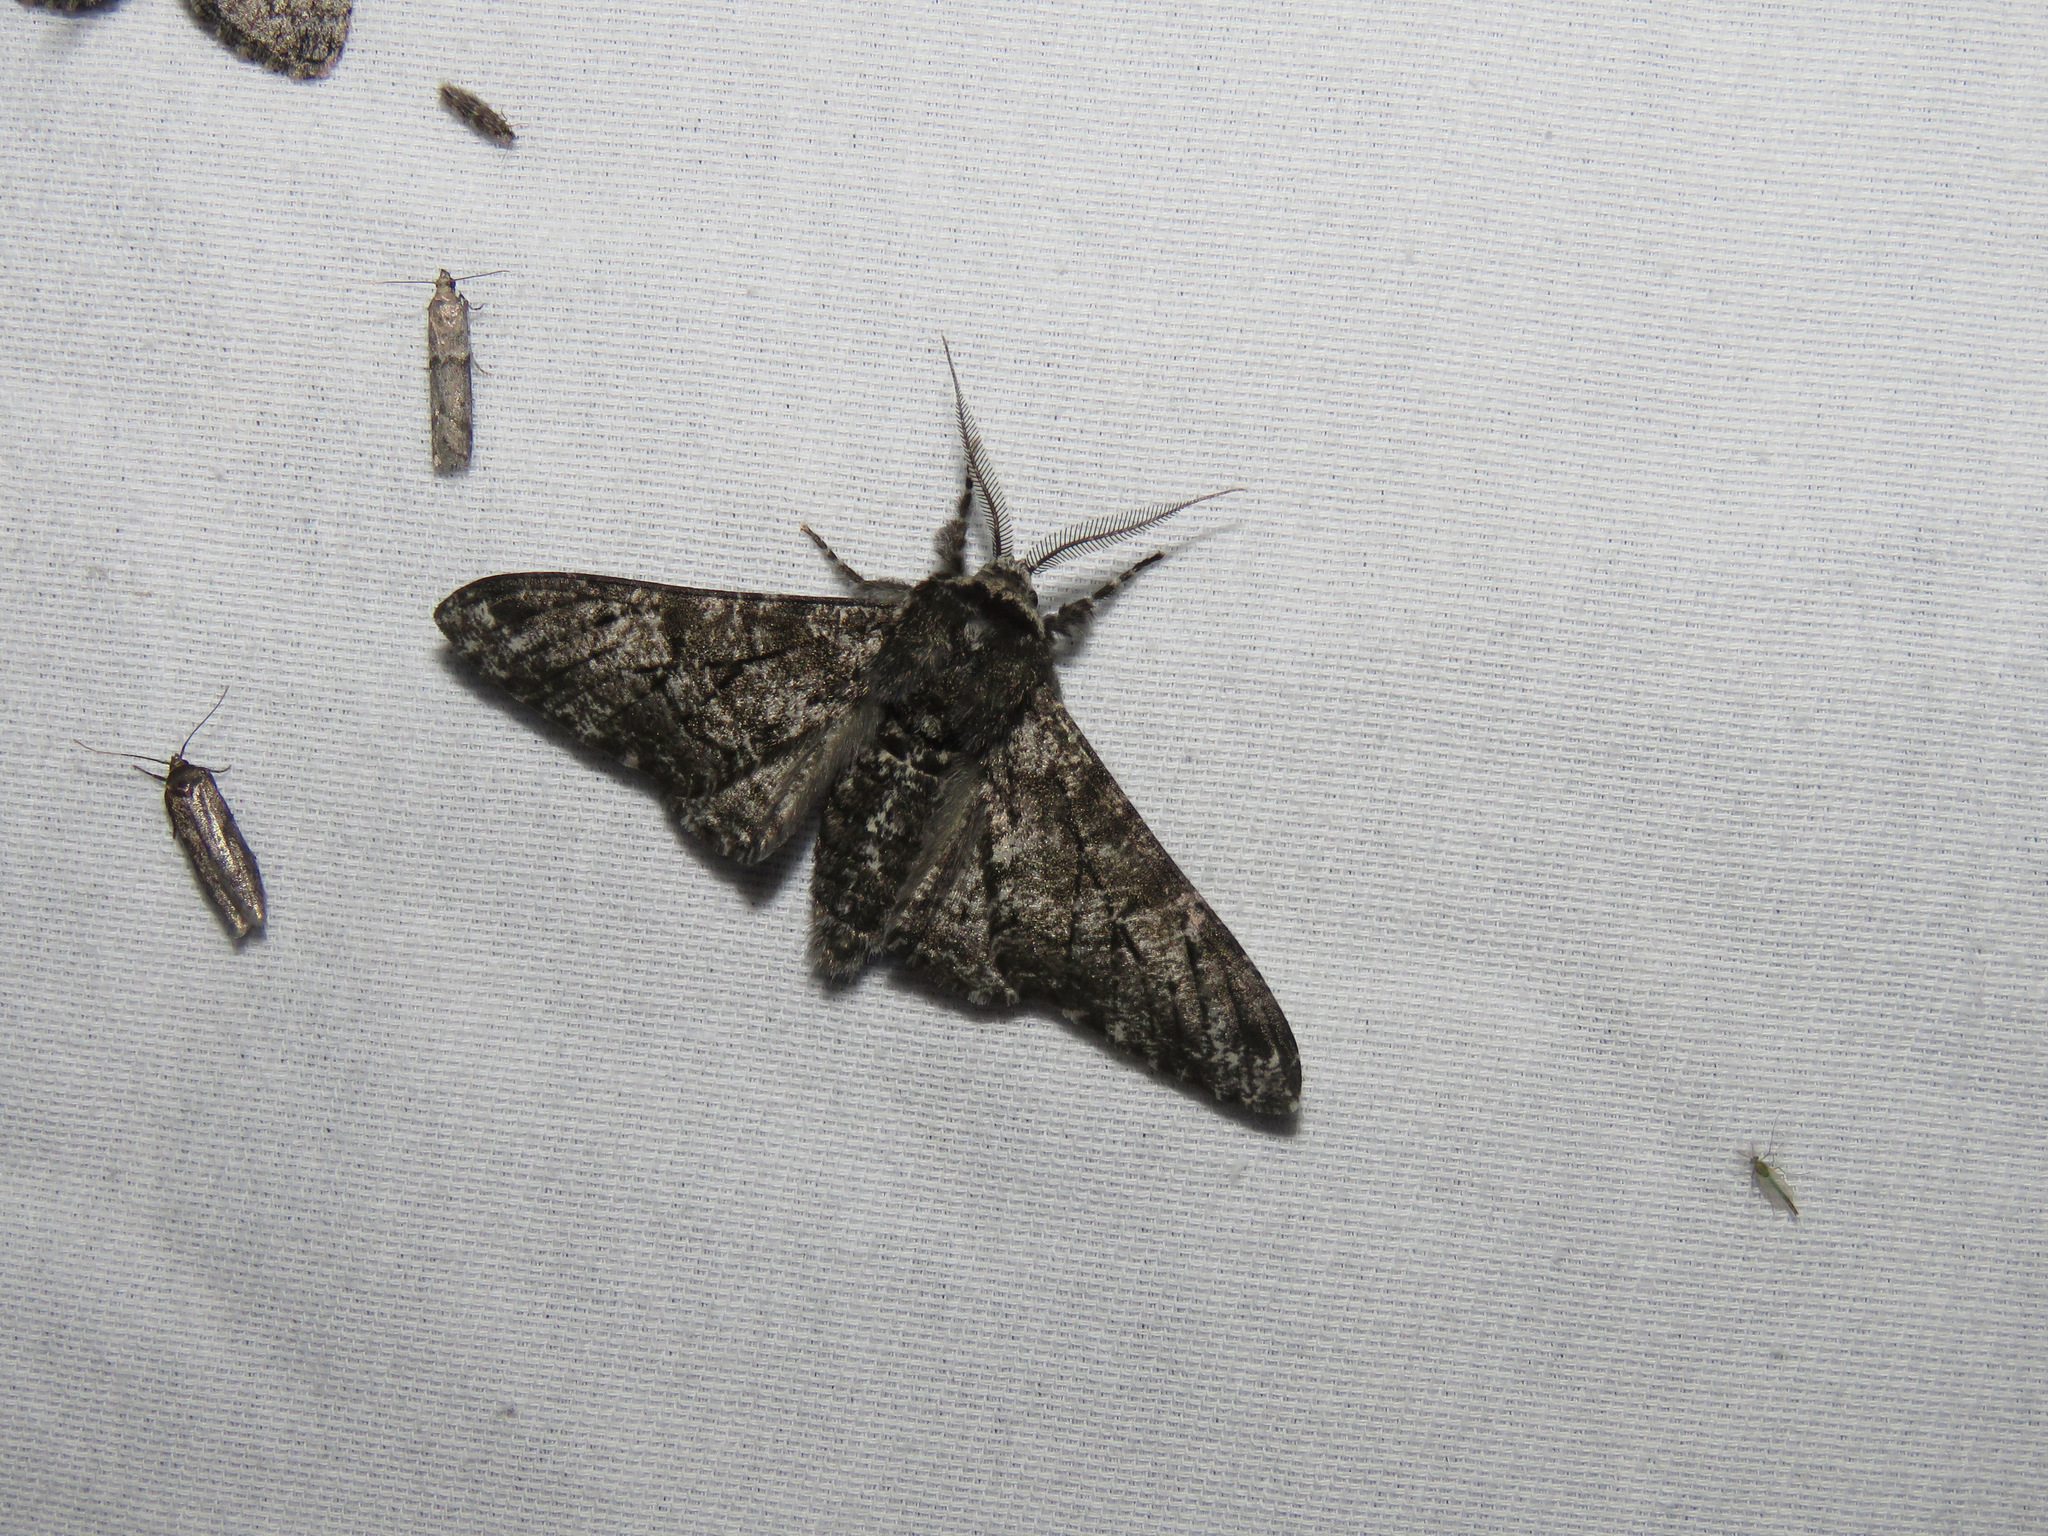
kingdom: Animalia
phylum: Arthropoda
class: Insecta
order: Lepidoptera
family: Geometridae
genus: Biston
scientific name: Biston betularia
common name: Peppered moth
